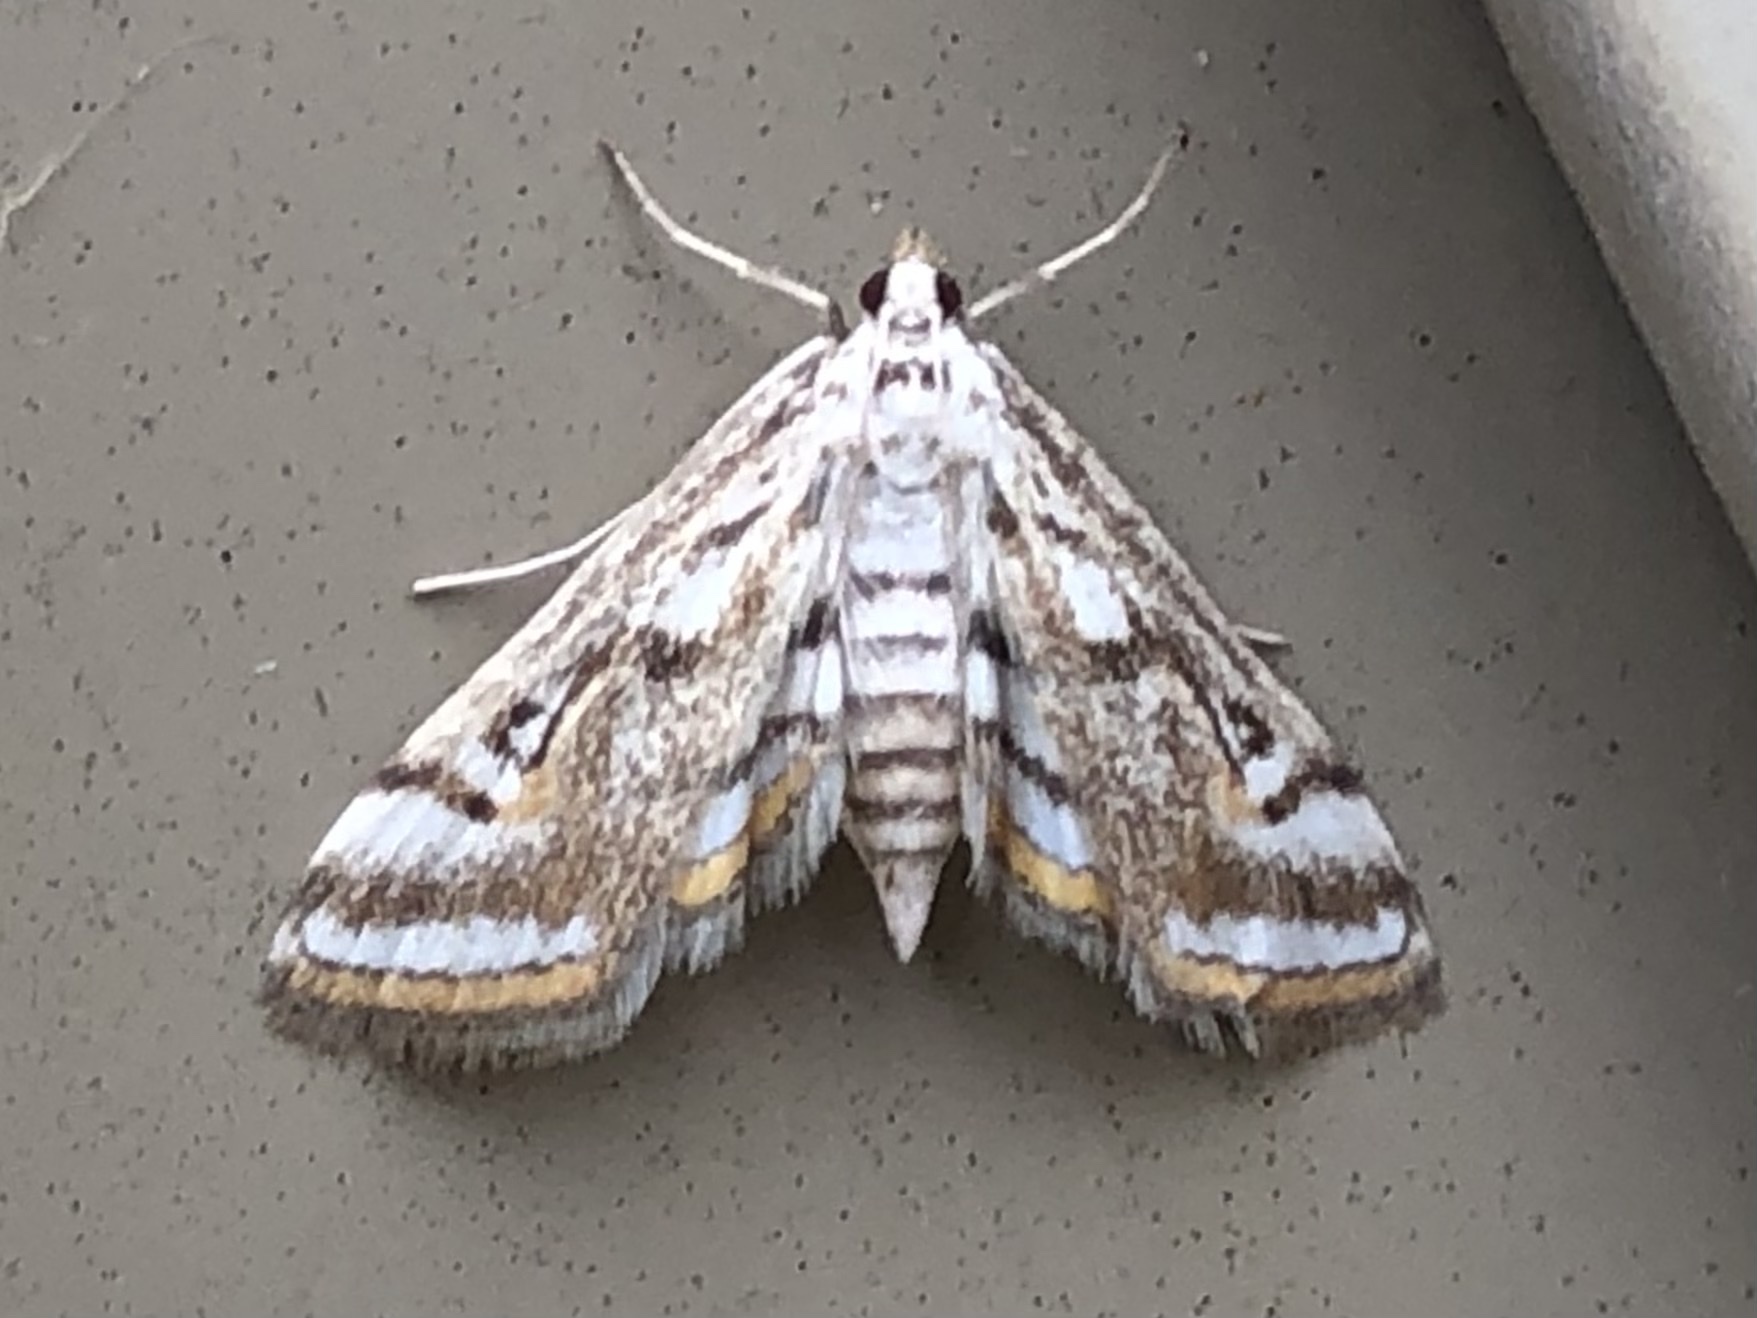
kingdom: Animalia
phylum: Arthropoda
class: Insecta
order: Lepidoptera
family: Crambidae
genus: Parapoynx
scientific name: Parapoynx badiusalis
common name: Chestnut-marked pondweed moth
